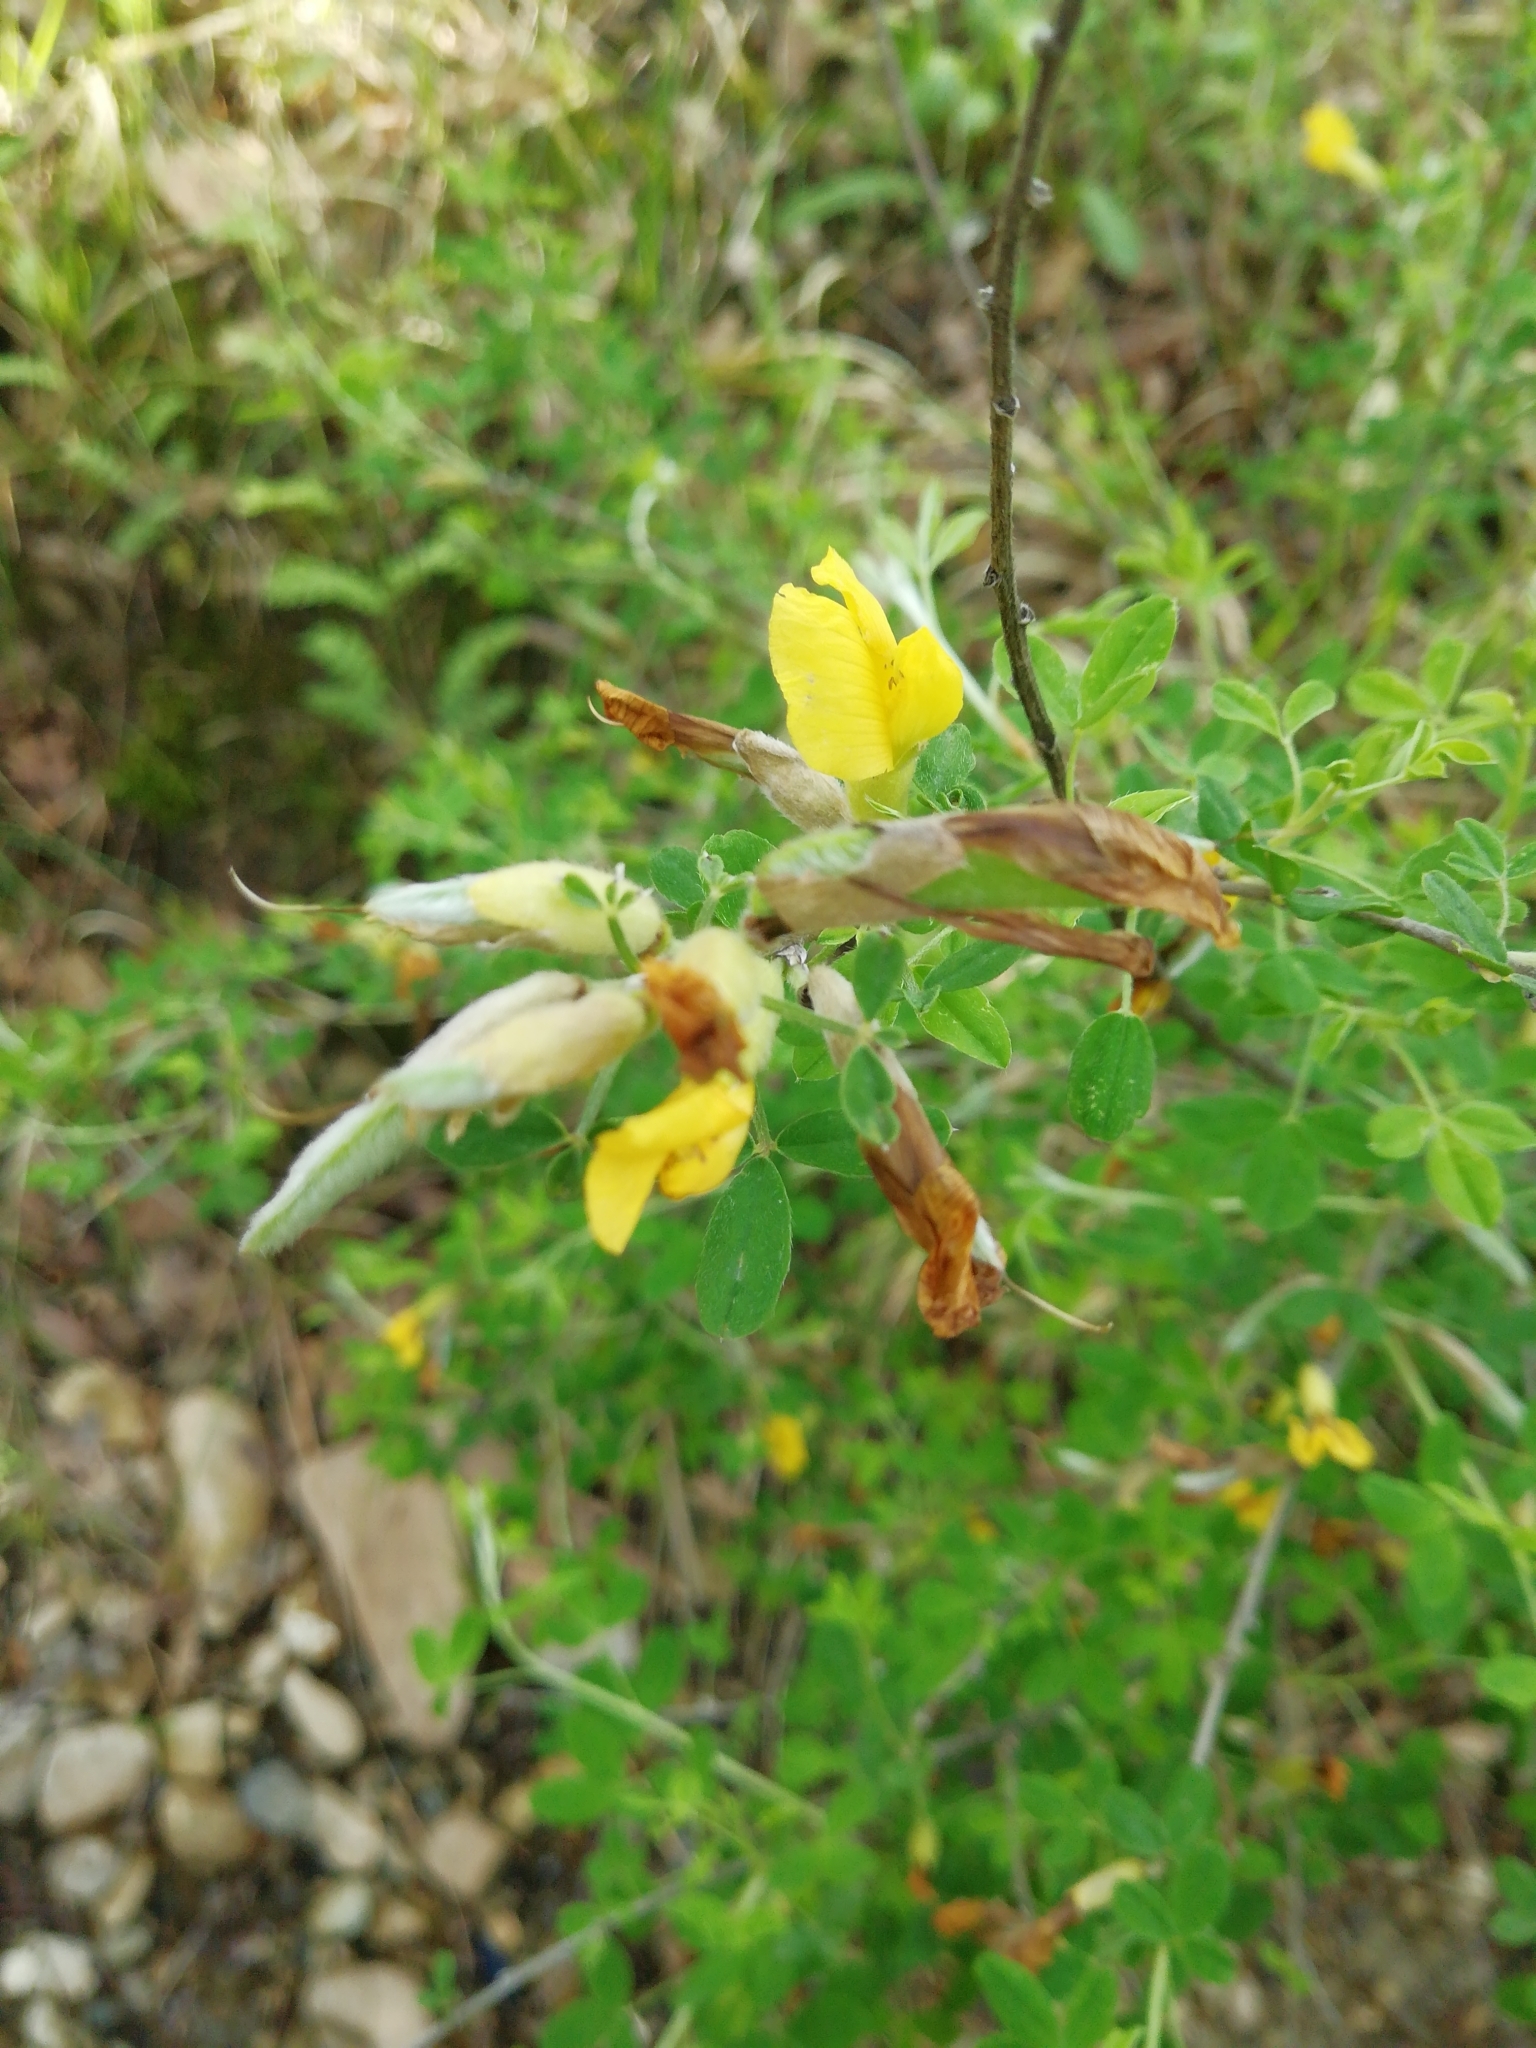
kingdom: Plantae
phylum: Tracheophyta
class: Magnoliopsida
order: Fabales
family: Fabaceae
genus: Chamaecytisus
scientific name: Chamaecytisus ruthenicus
